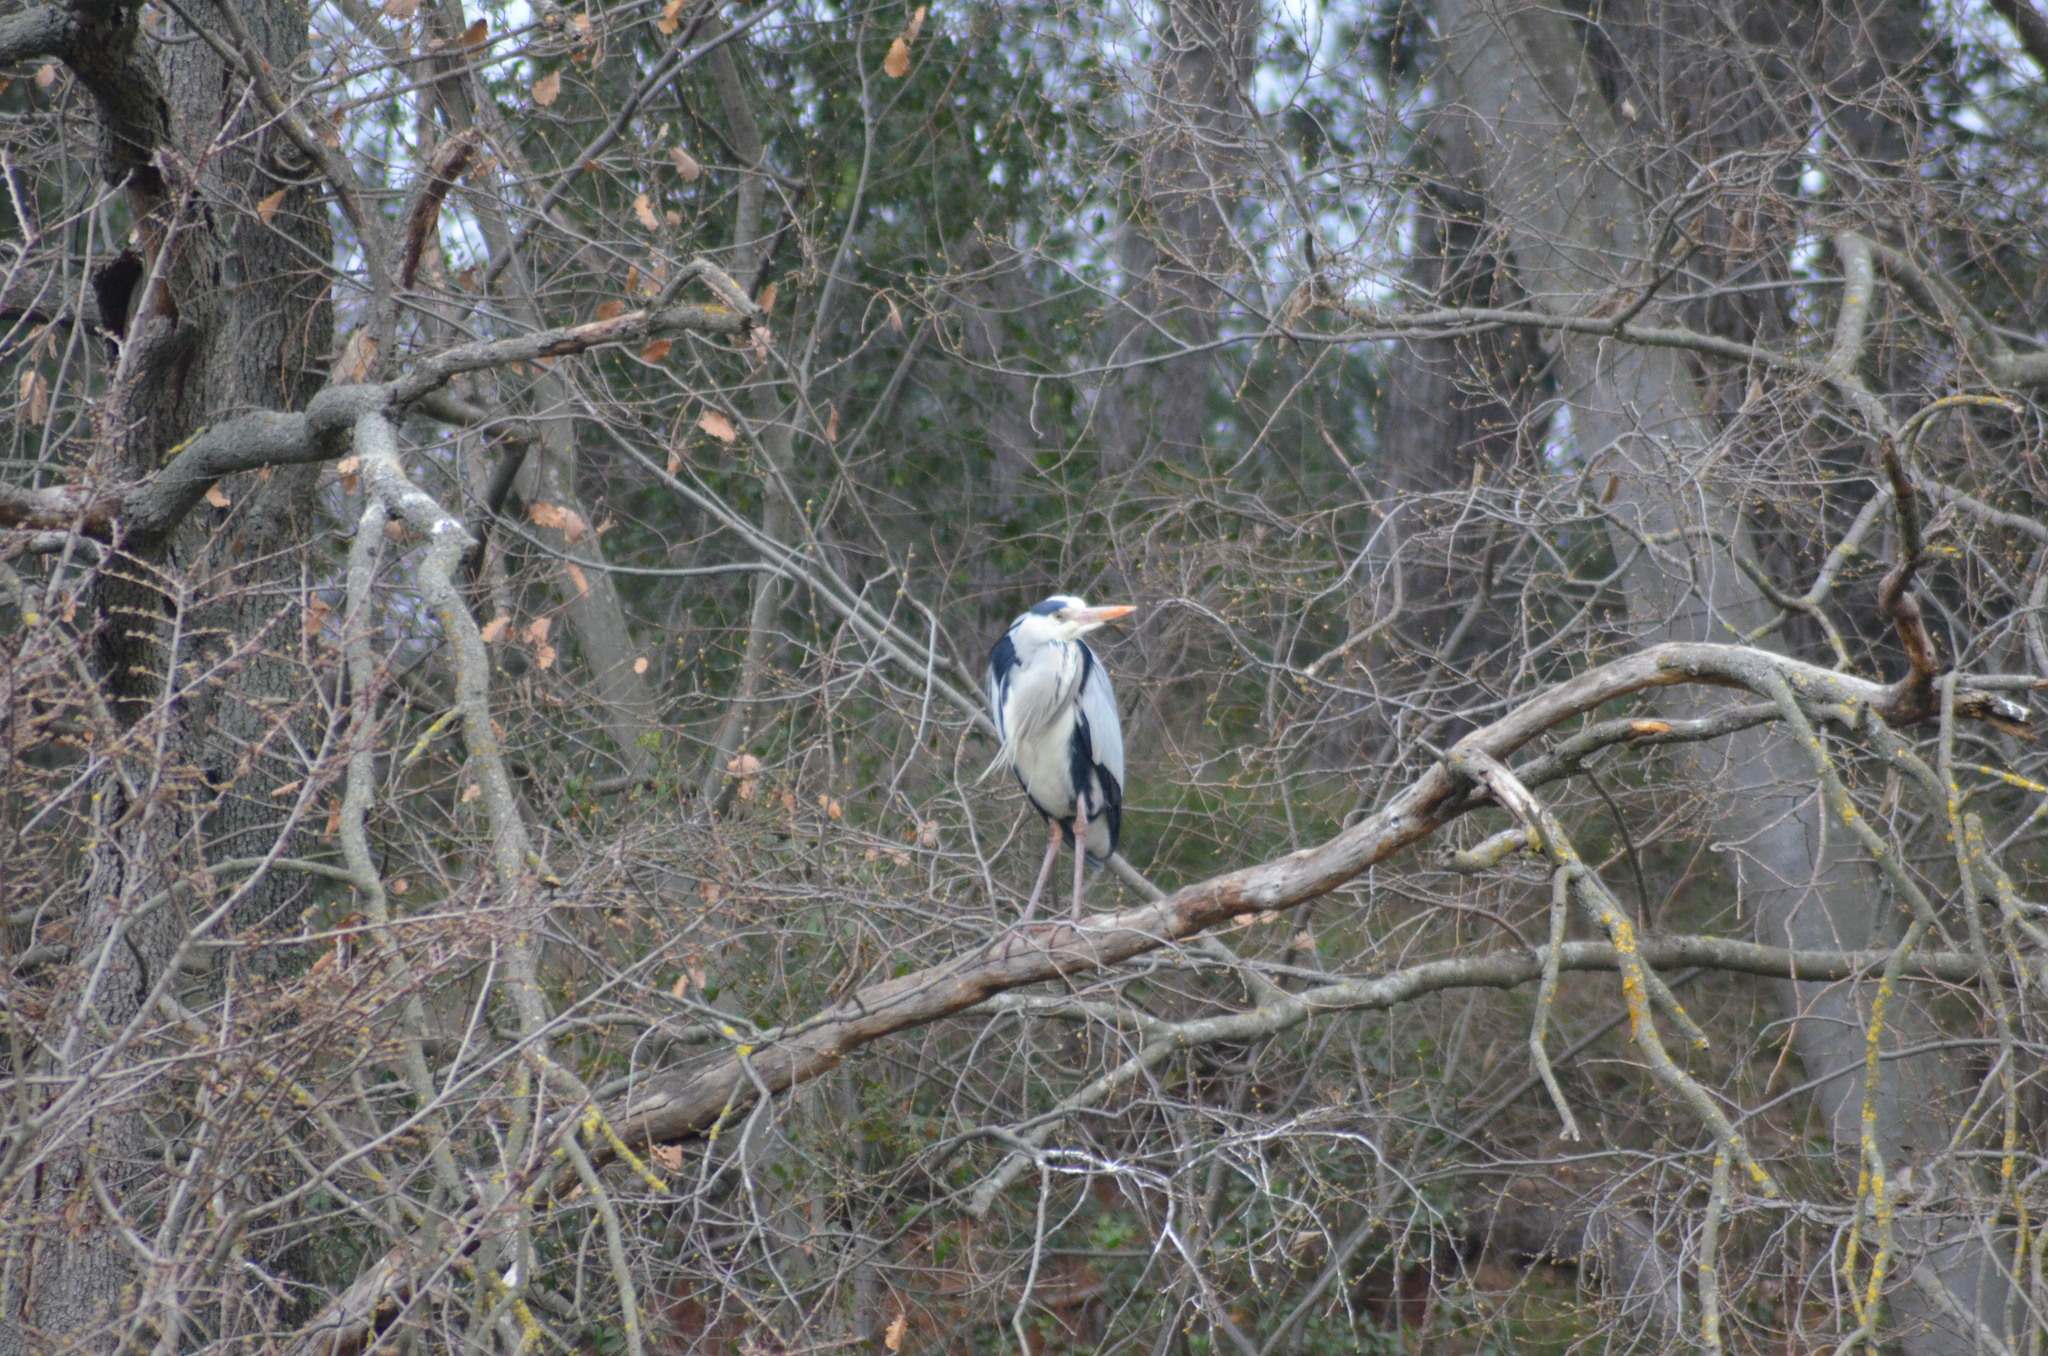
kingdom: Animalia
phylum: Chordata
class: Aves
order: Pelecaniformes
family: Ardeidae
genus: Ardea
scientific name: Ardea cinerea
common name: Grey heron
